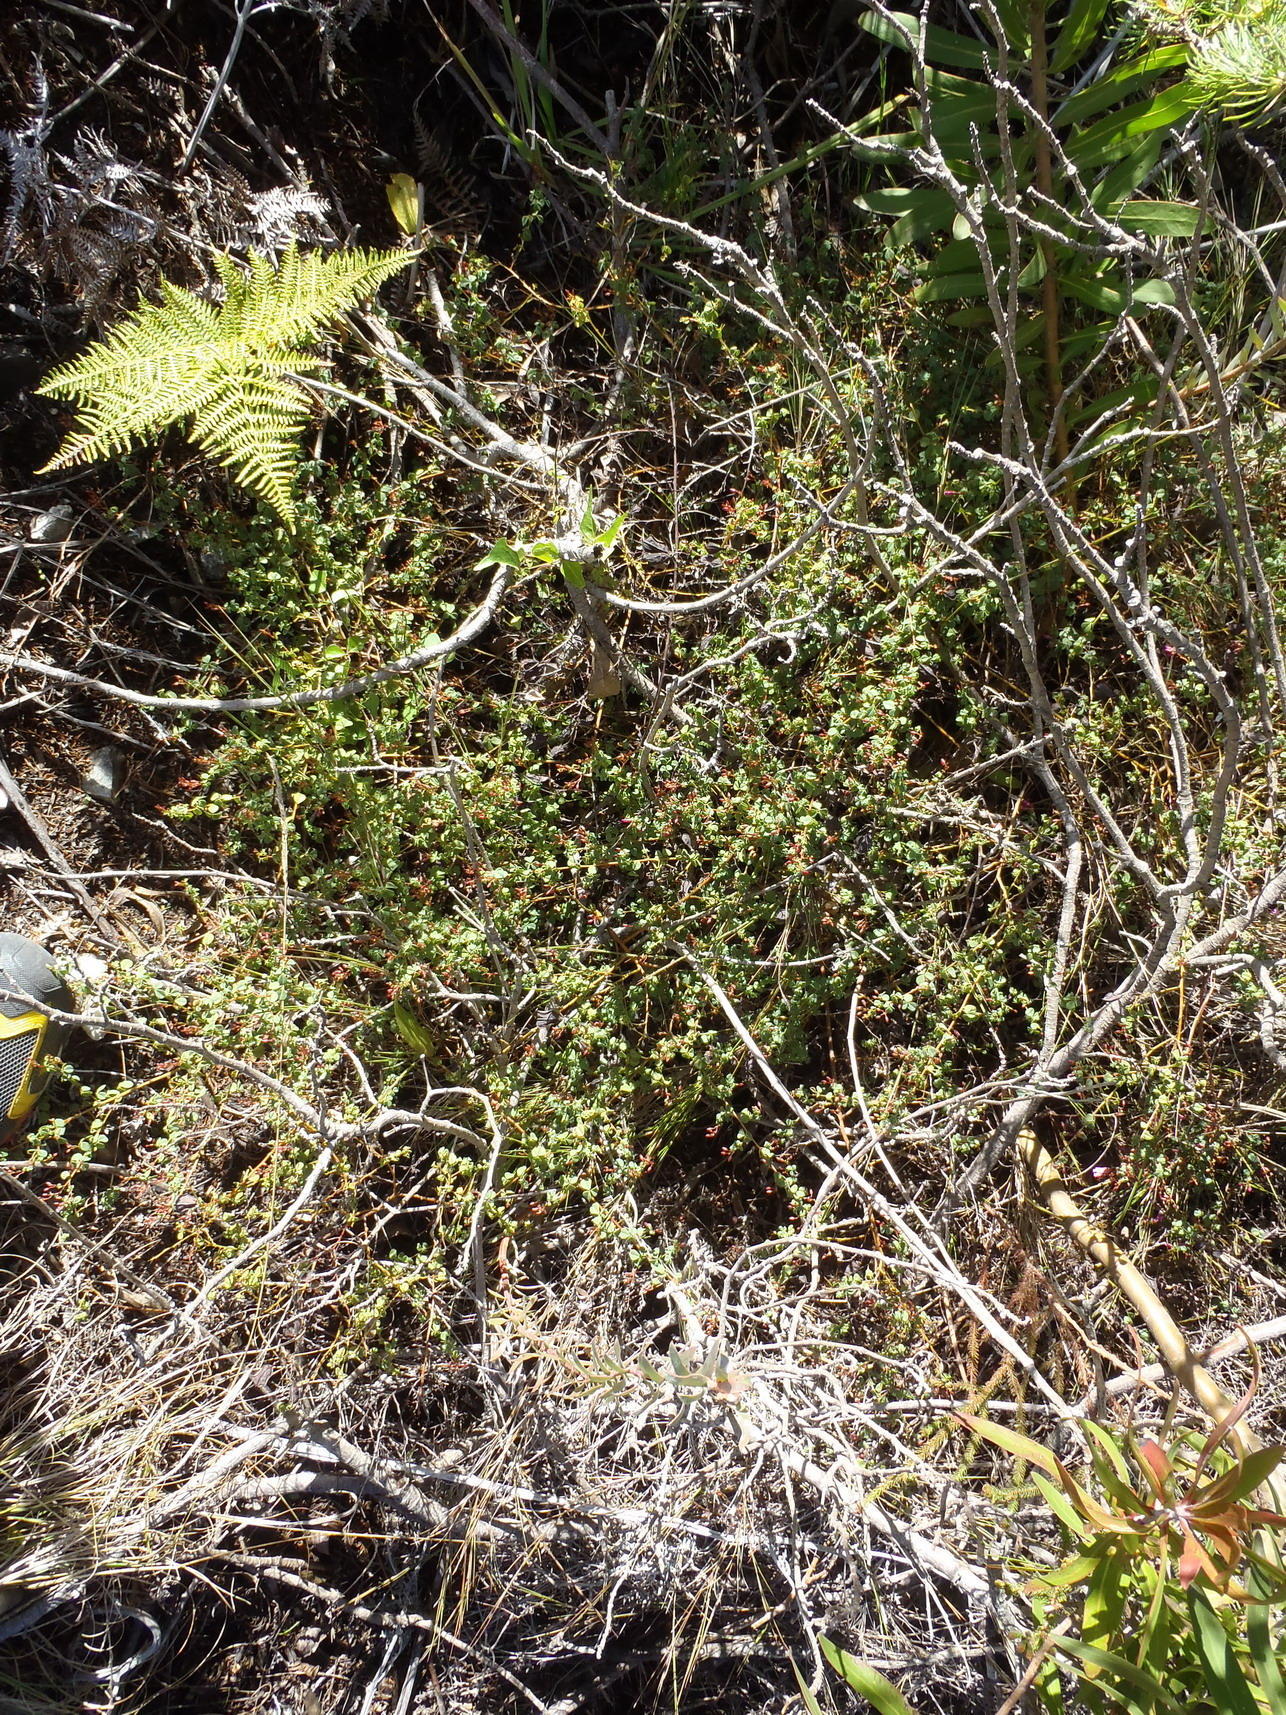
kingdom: Plantae
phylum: Tracheophyta
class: Magnoliopsida
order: Fabales
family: Fabaceae
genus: Hypocalyptus
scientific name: Hypocalyptus oxalidifolius
